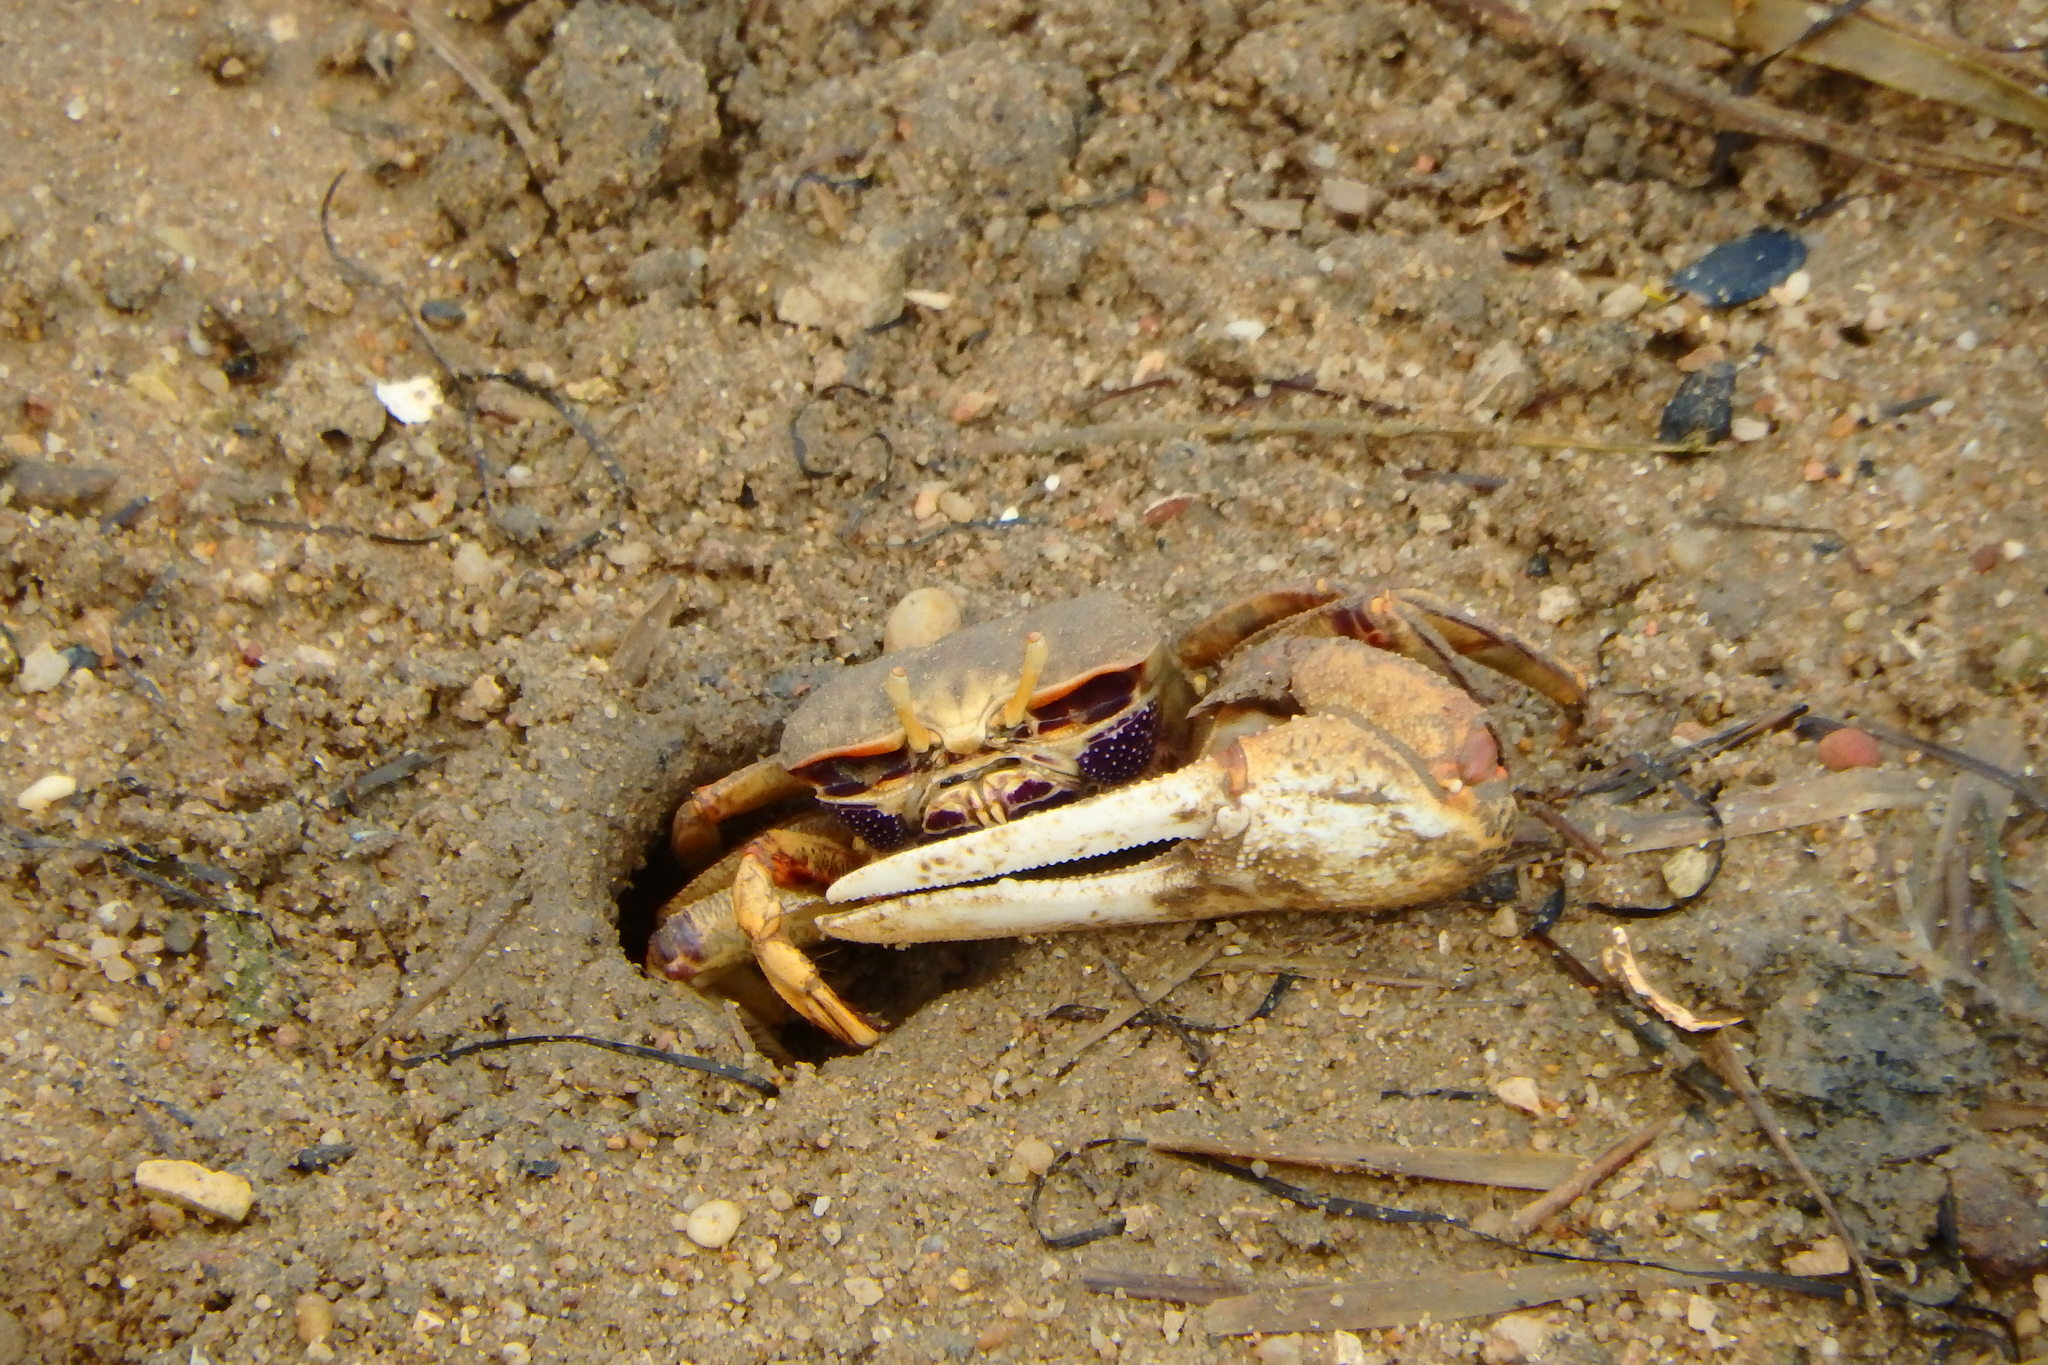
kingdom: Animalia
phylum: Arthropoda
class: Malacostraca
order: Decapoda
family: Ocypodidae
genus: Afruca
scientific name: Afruca tangeri
